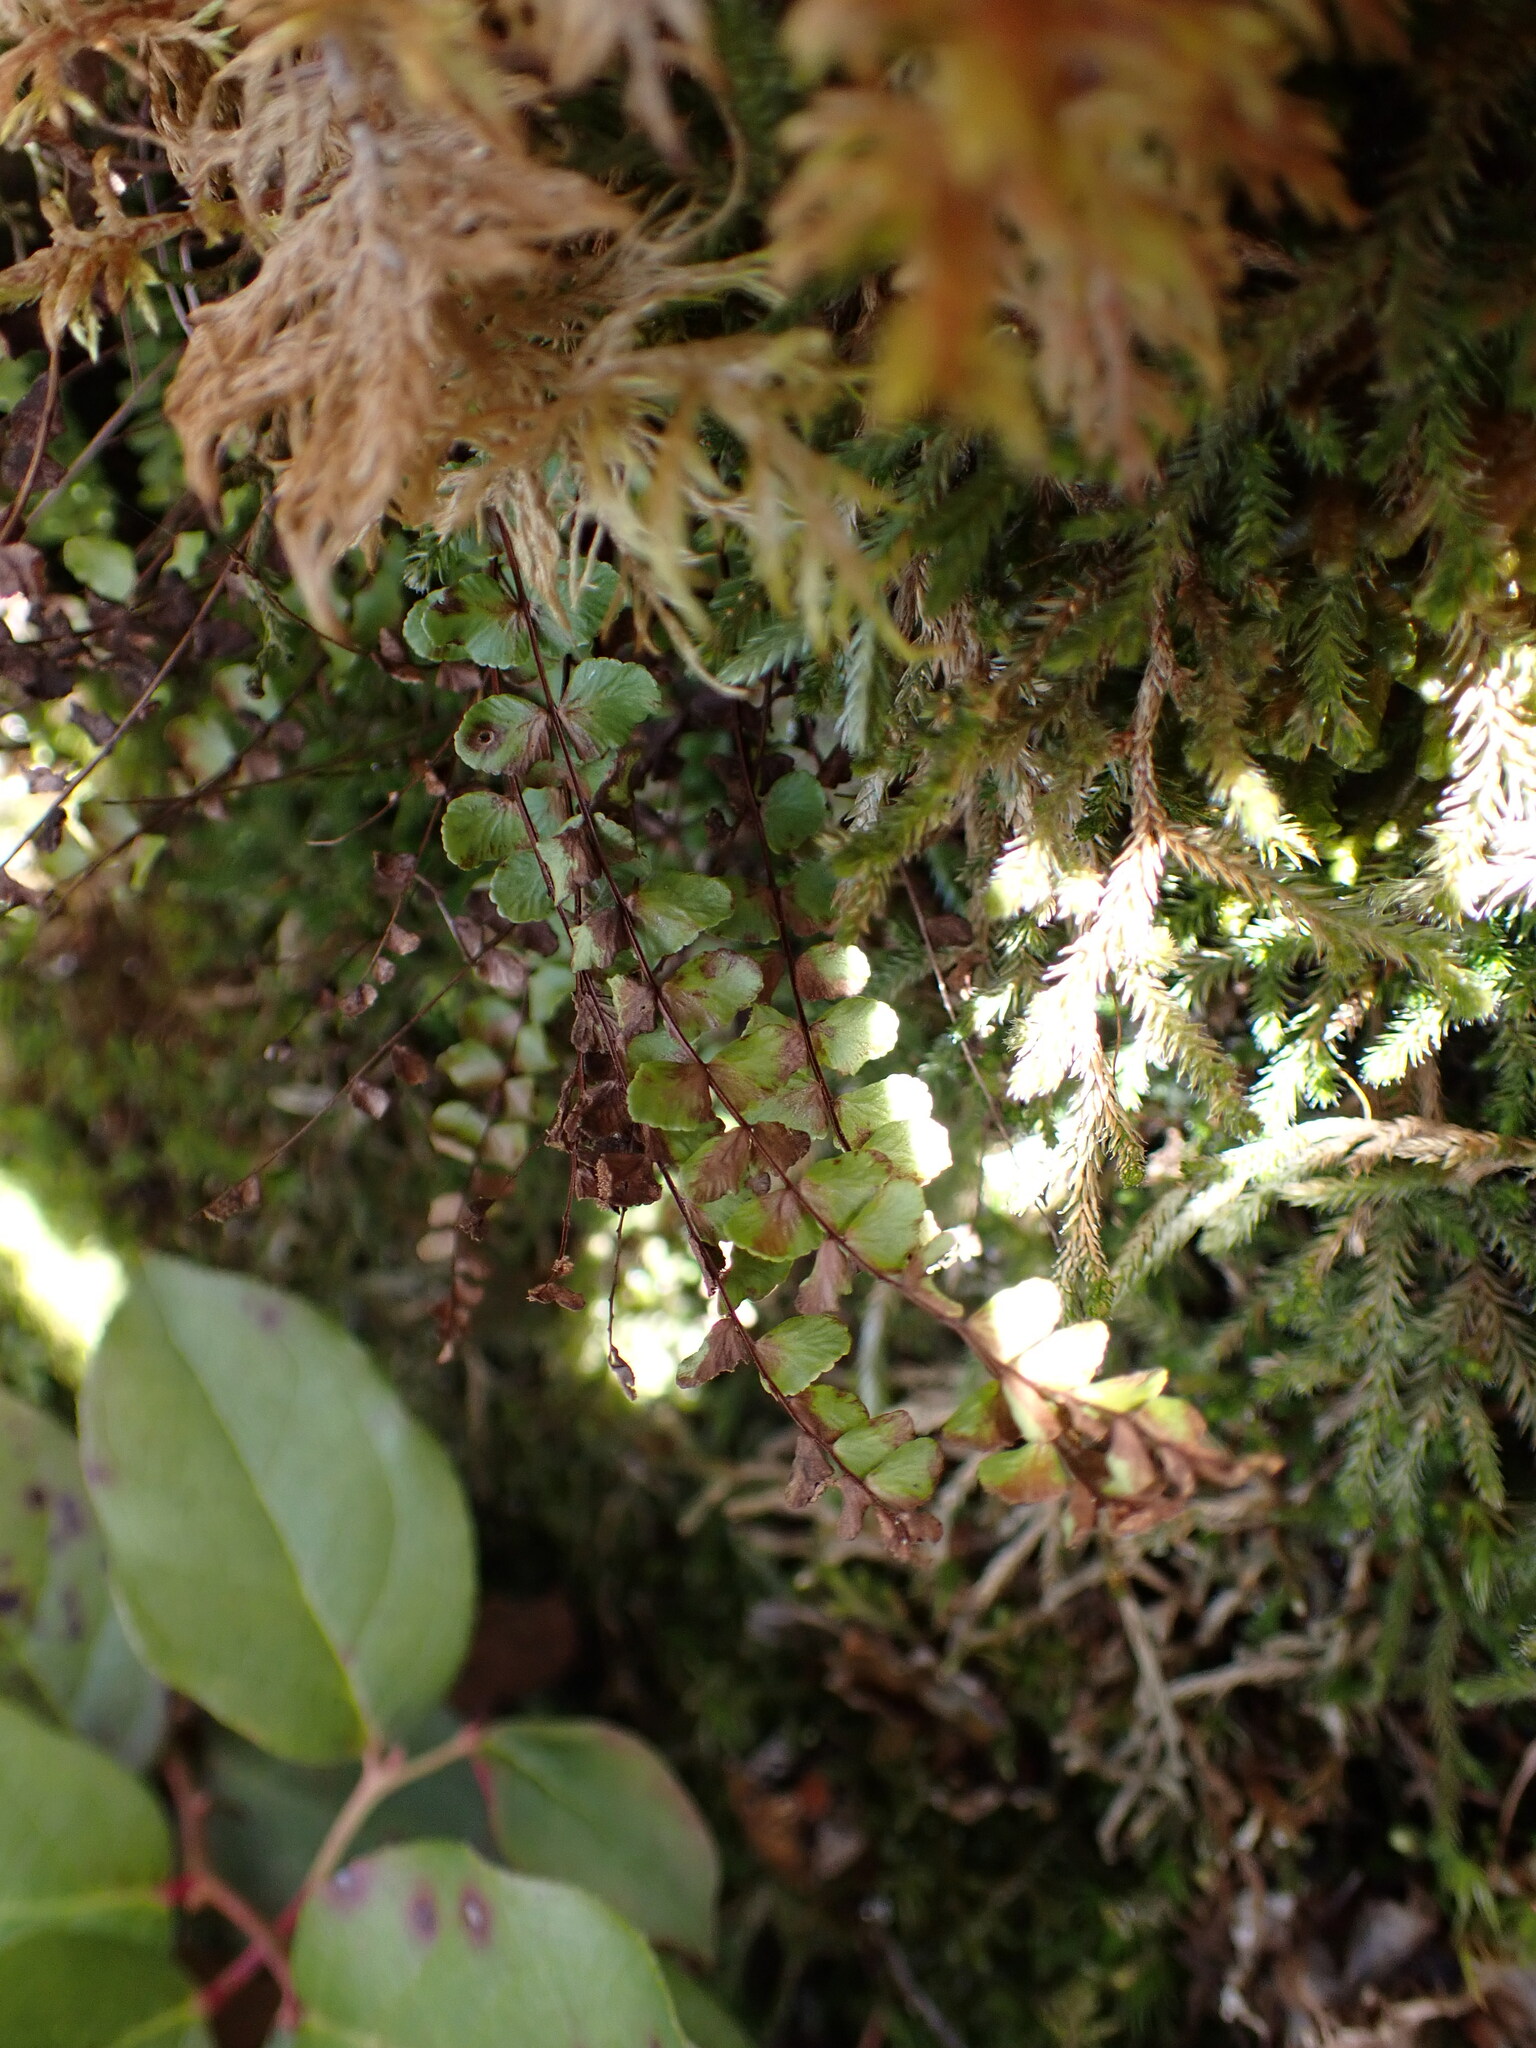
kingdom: Plantae
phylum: Tracheophyta
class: Polypodiopsida
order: Polypodiales
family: Aspleniaceae
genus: Asplenium
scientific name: Asplenium trichomanes
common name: Maidenhair spleenwort
